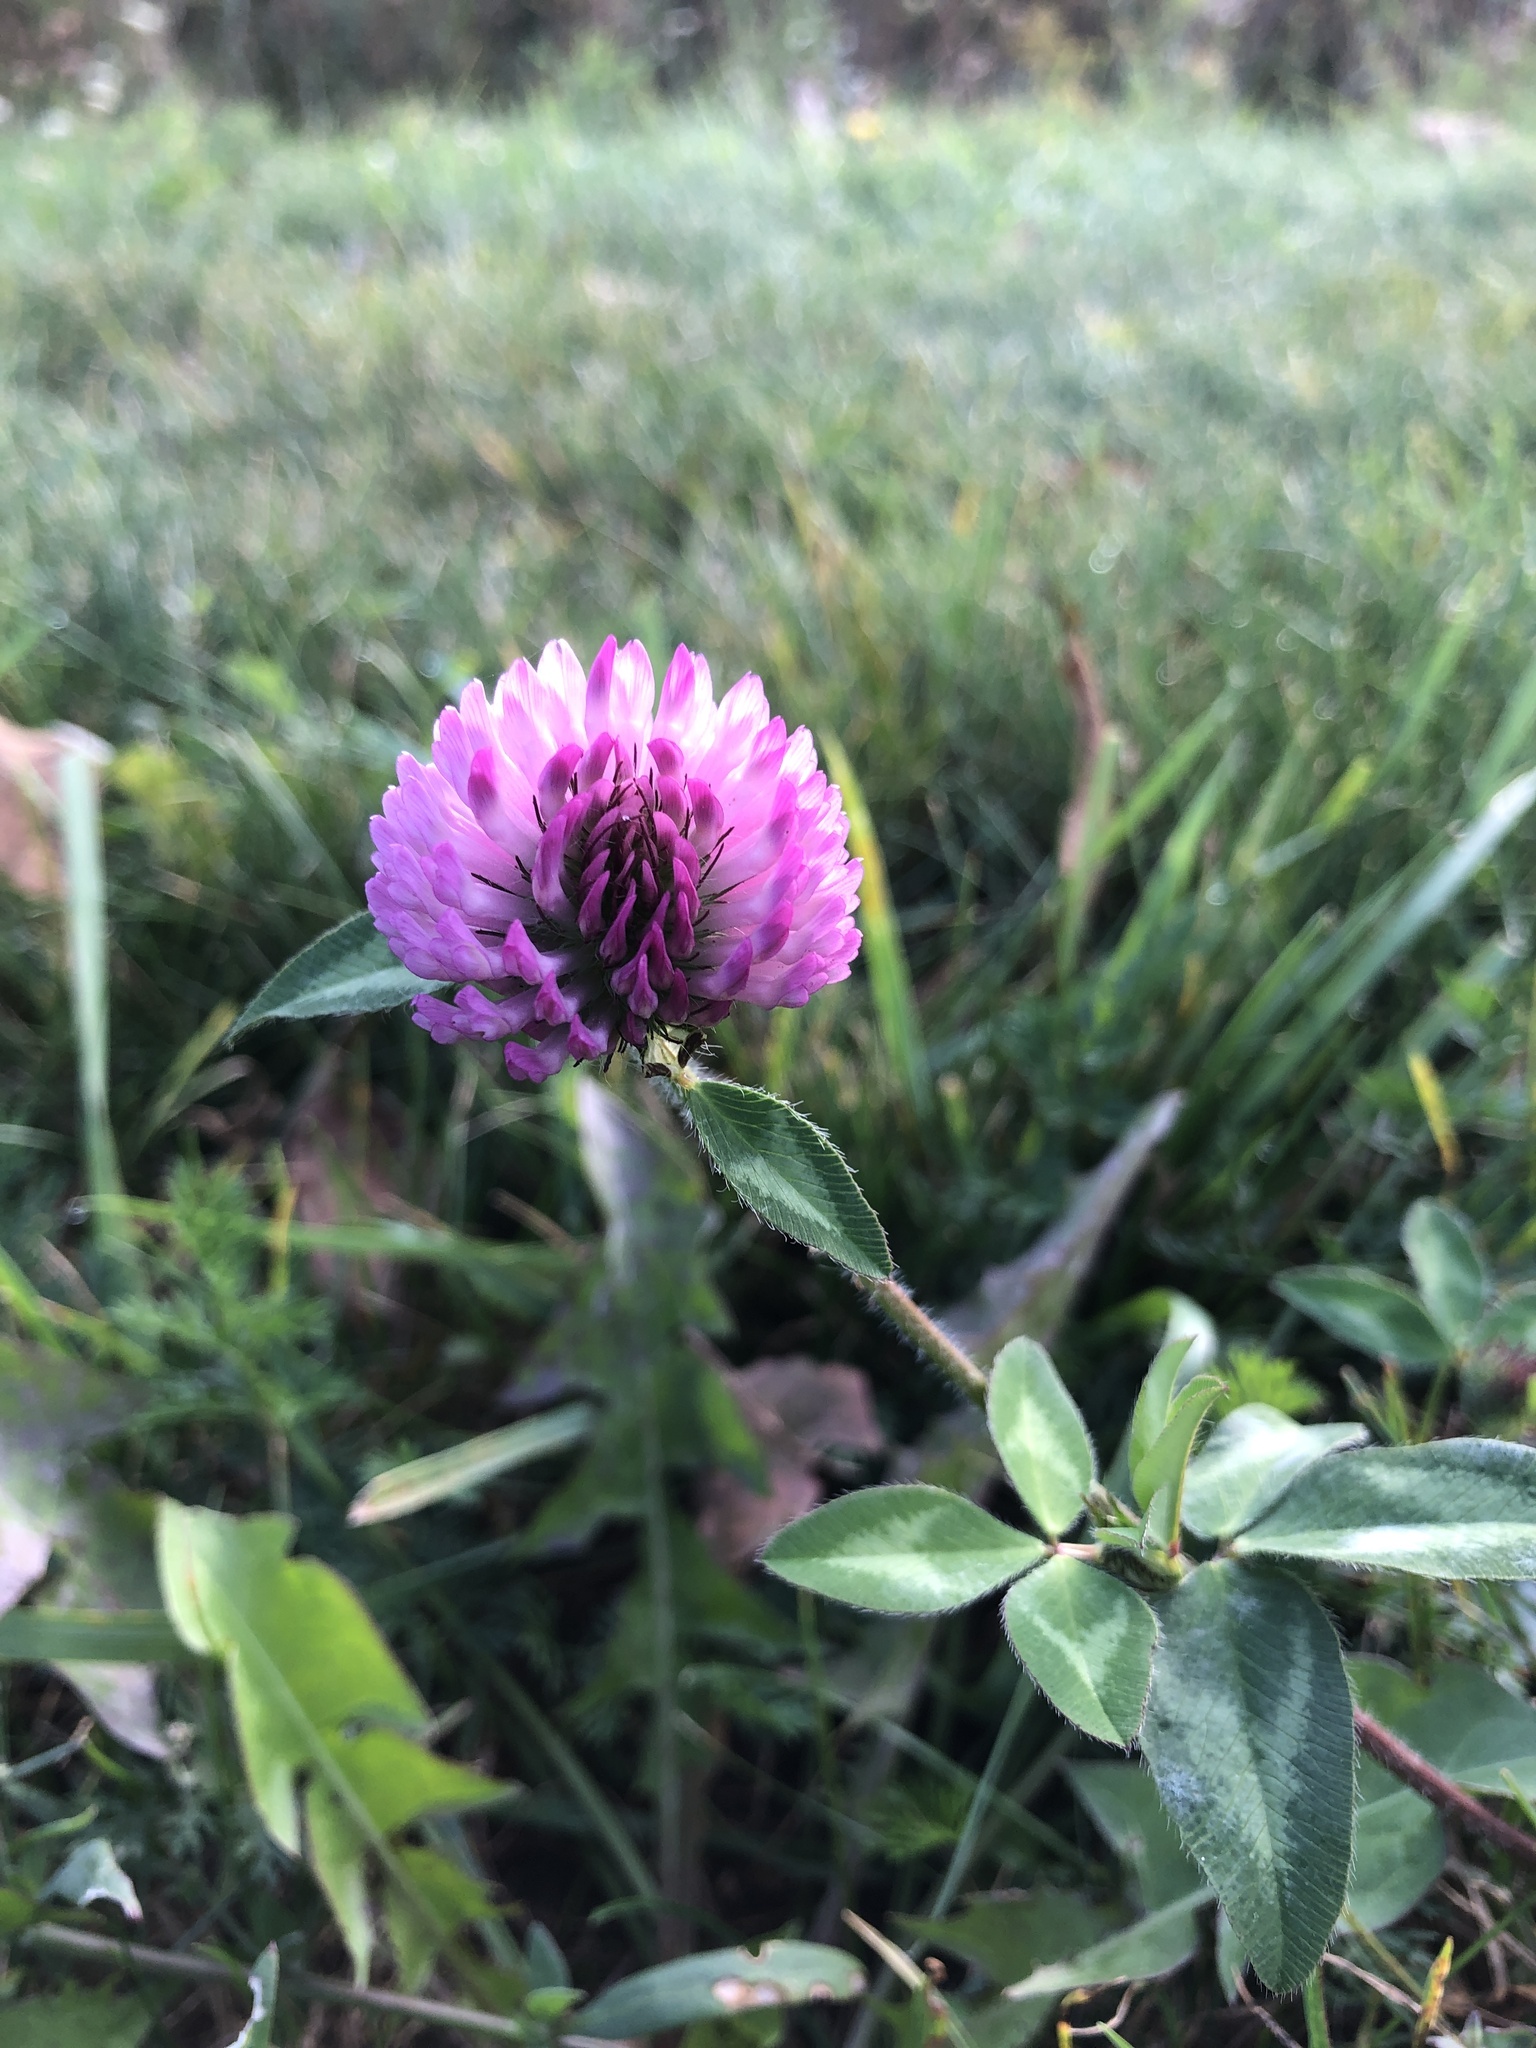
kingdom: Plantae
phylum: Tracheophyta
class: Magnoliopsida
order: Fabales
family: Fabaceae
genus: Trifolium
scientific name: Trifolium pratense
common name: Red clover
